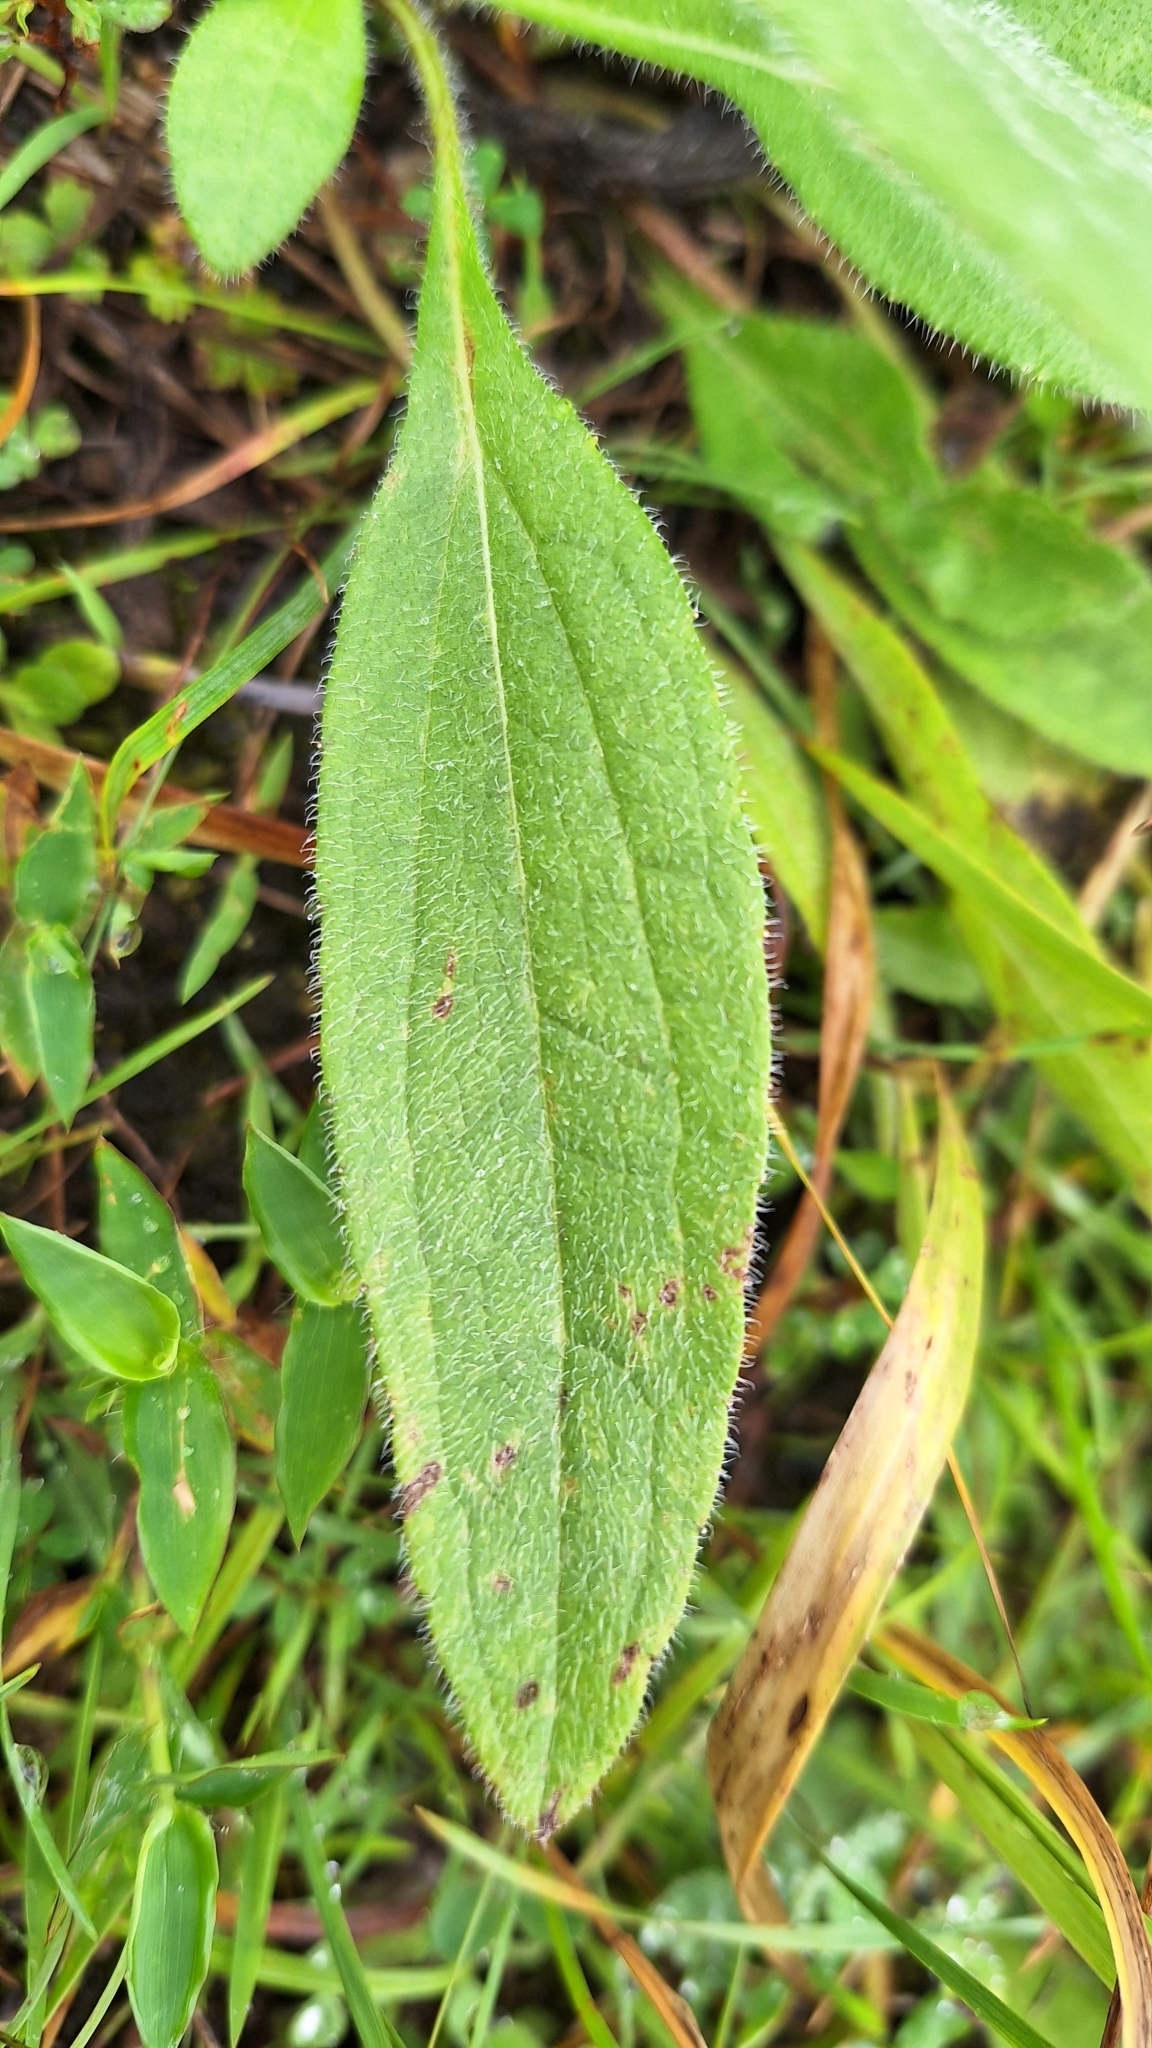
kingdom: Plantae
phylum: Tracheophyta
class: Magnoliopsida
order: Asterales
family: Asteraceae
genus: Rudbeckia
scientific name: Rudbeckia hirta
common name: Black-eyed-susan
